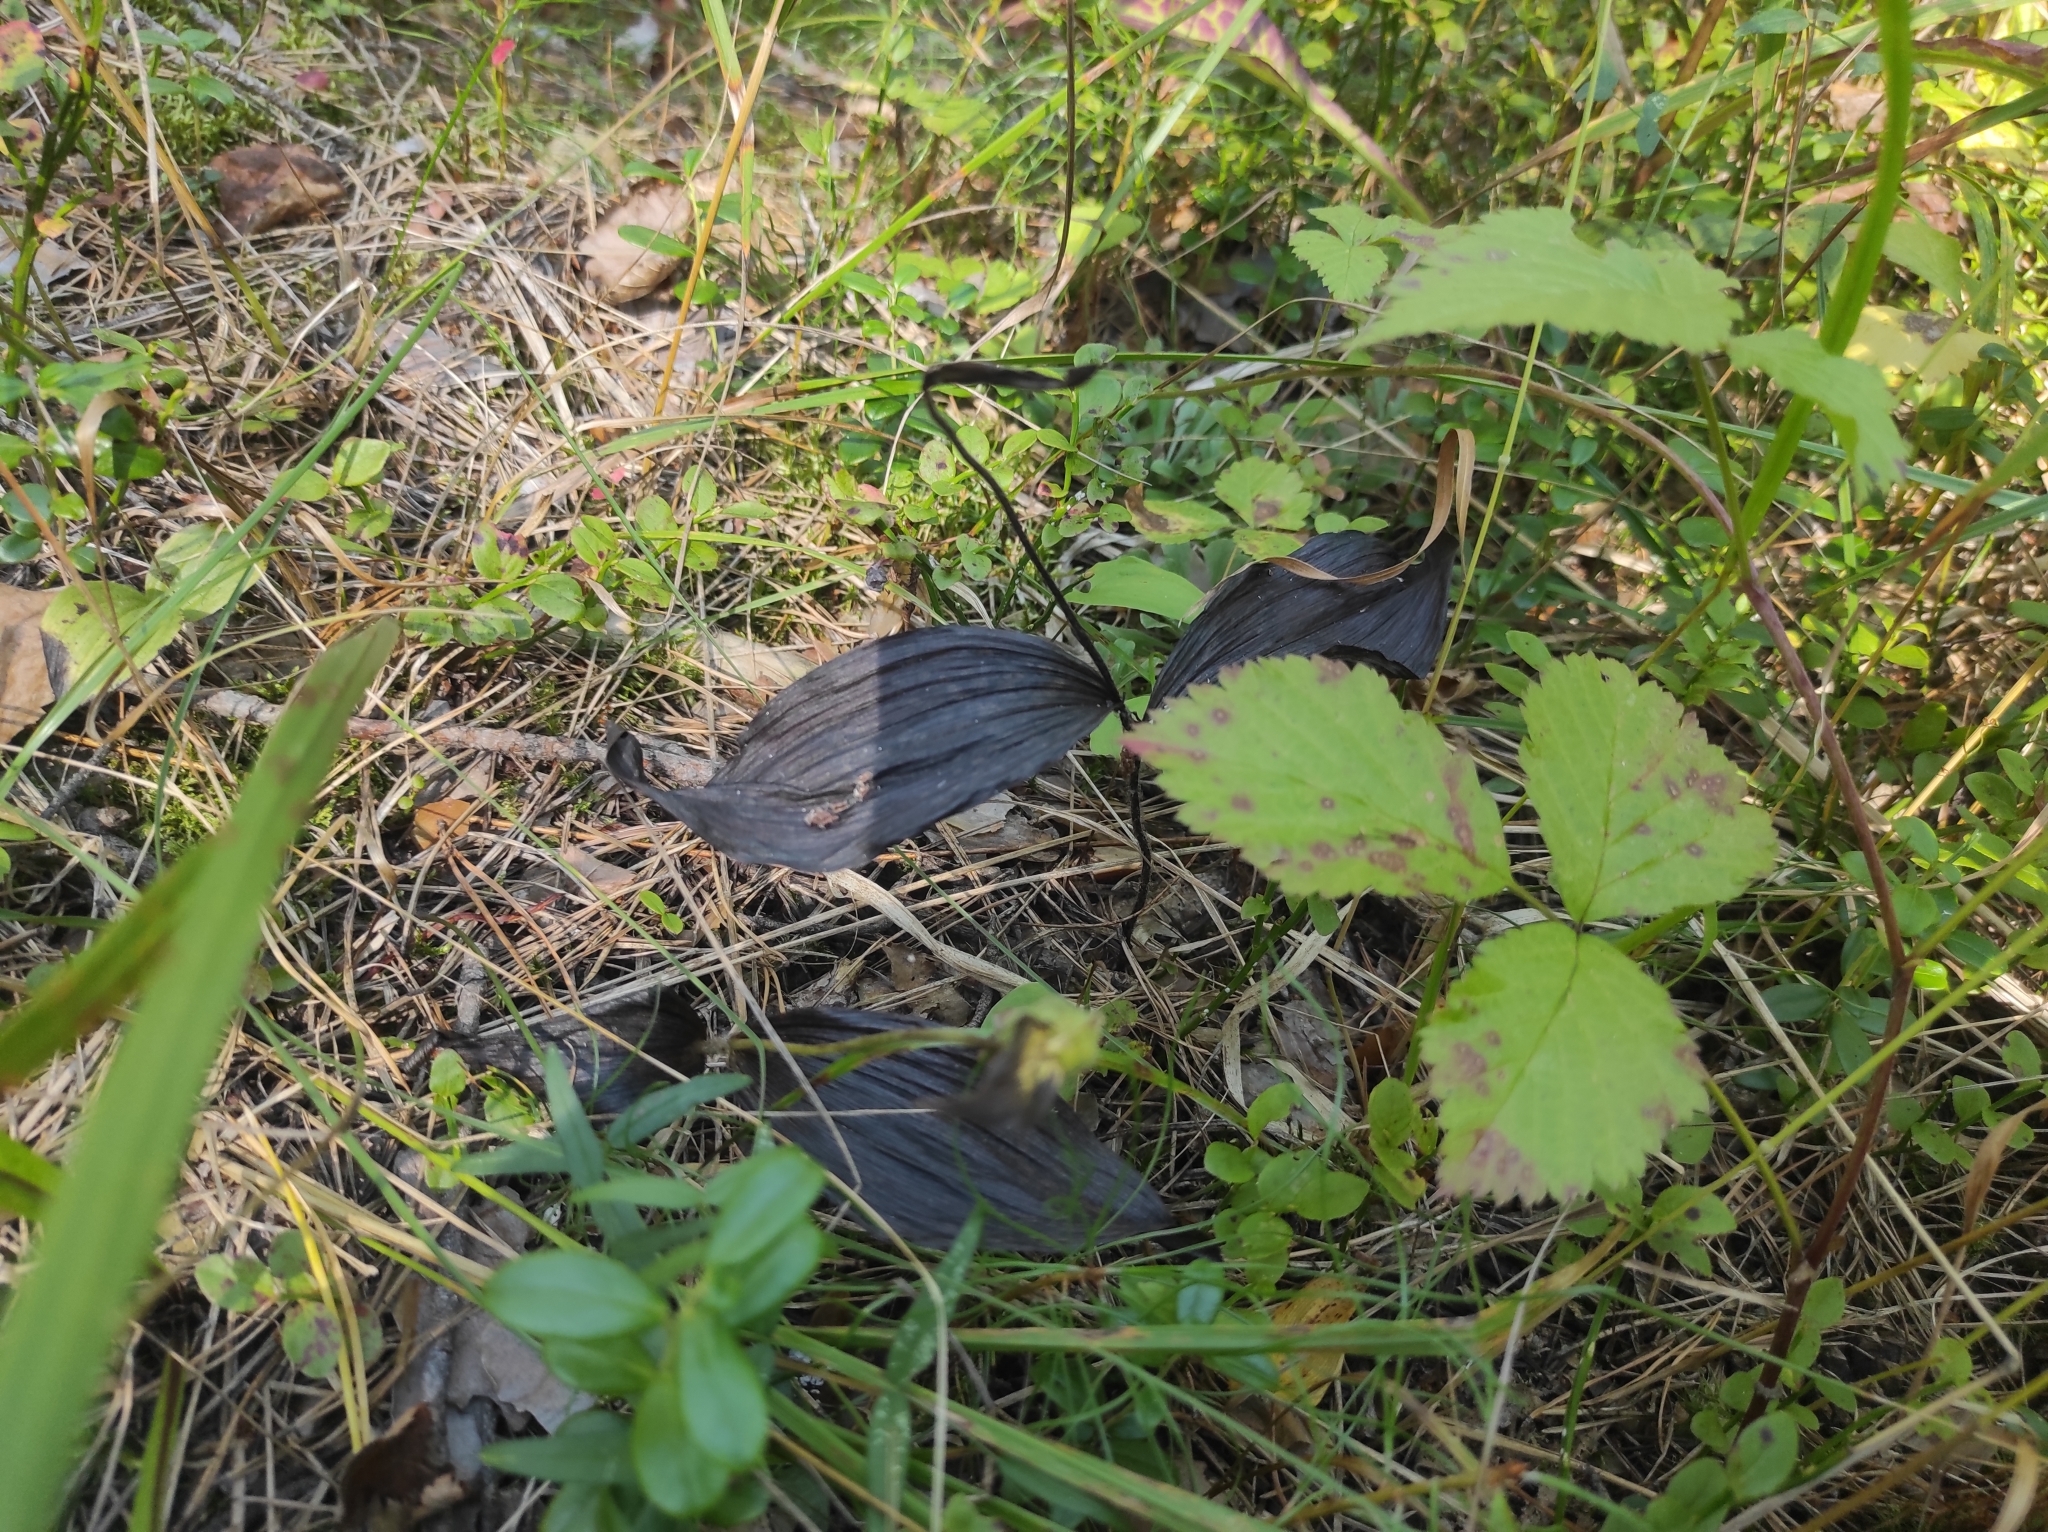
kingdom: Plantae
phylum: Tracheophyta
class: Liliopsida
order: Asparagales
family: Orchidaceae
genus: Cypripedium
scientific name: Cypripedium guttatum
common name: Pink lady slipper
